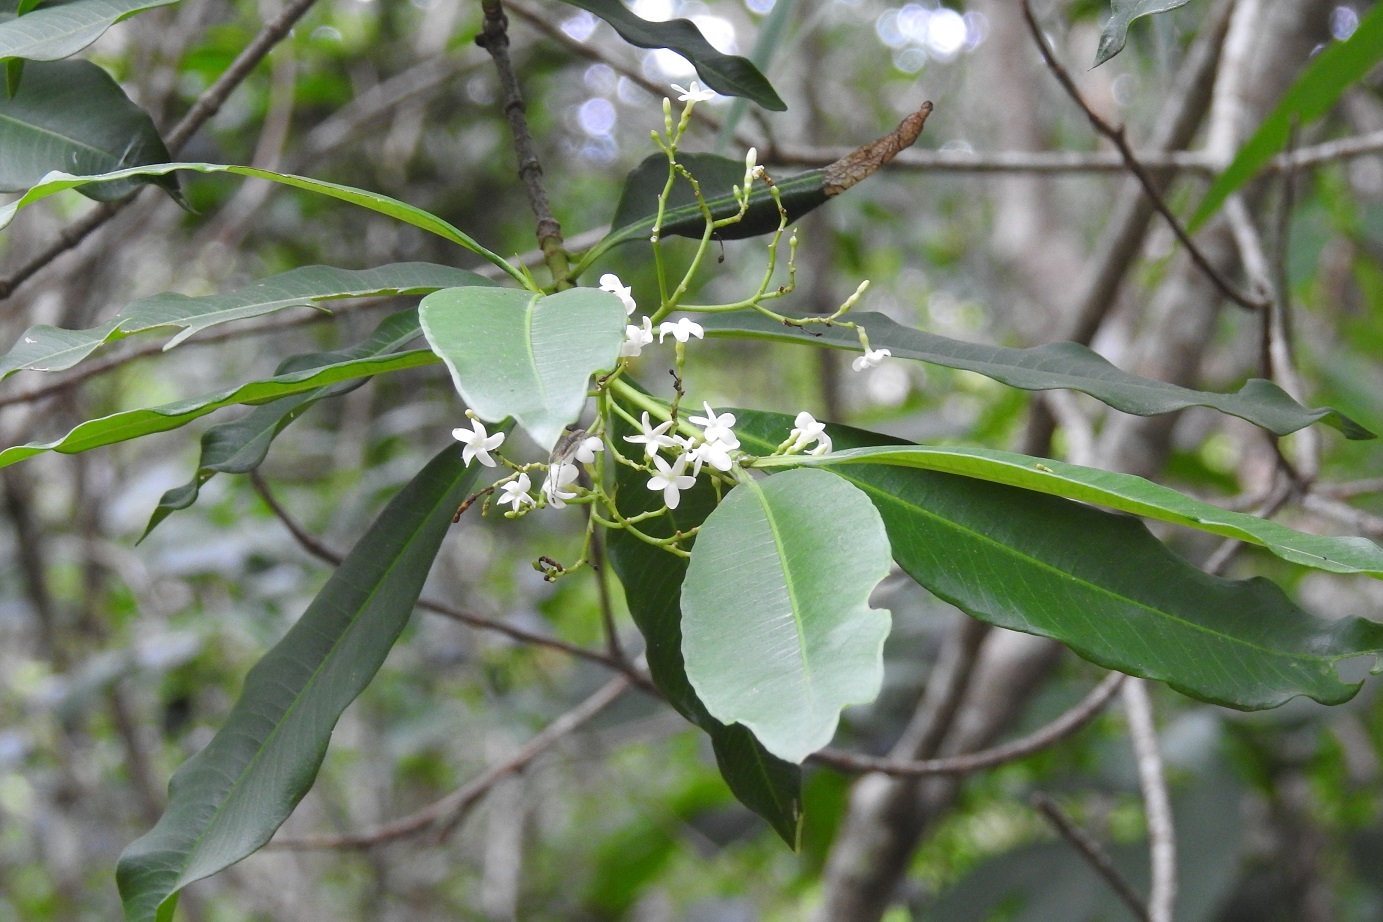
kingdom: Plantae
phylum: Tracheophyta
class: Magnoliopsida
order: Gentianales
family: Apocynaceae
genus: Tonduzia
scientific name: Tonduzia longifolia
